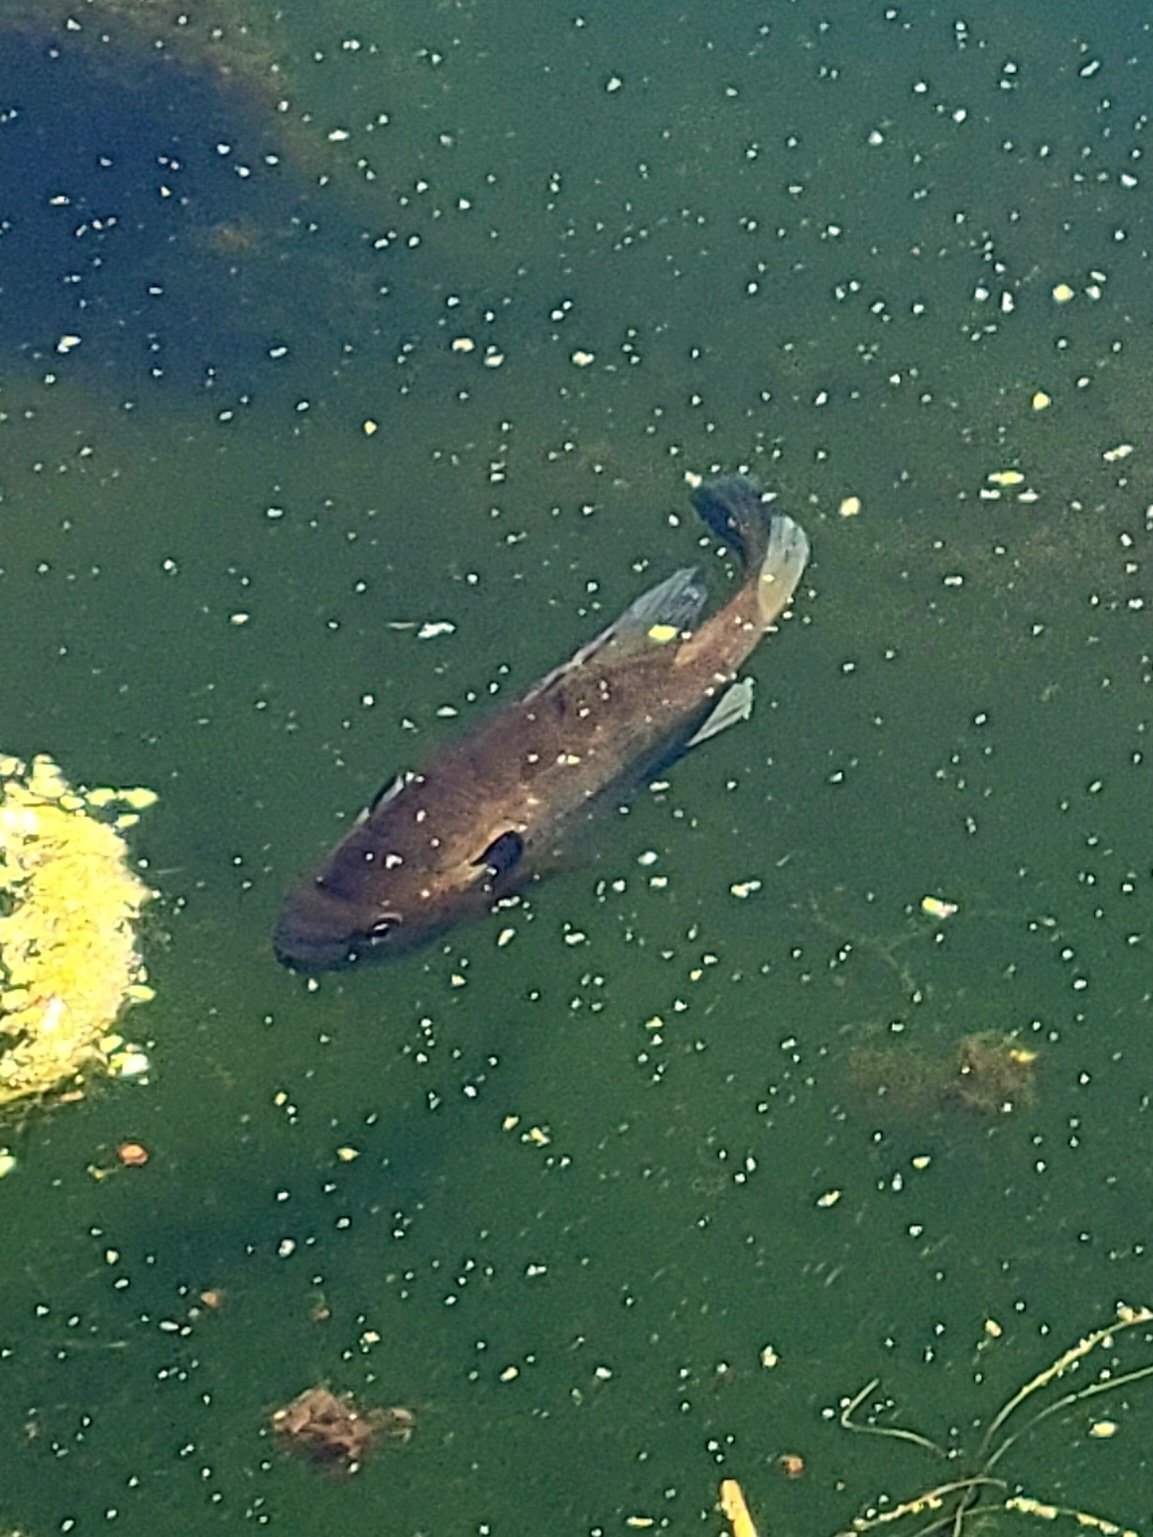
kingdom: Animalia
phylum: Chordata
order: Perciformes
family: Centrarchidae
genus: Lepomis
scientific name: Lepomis macrochirus
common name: Bluegill
